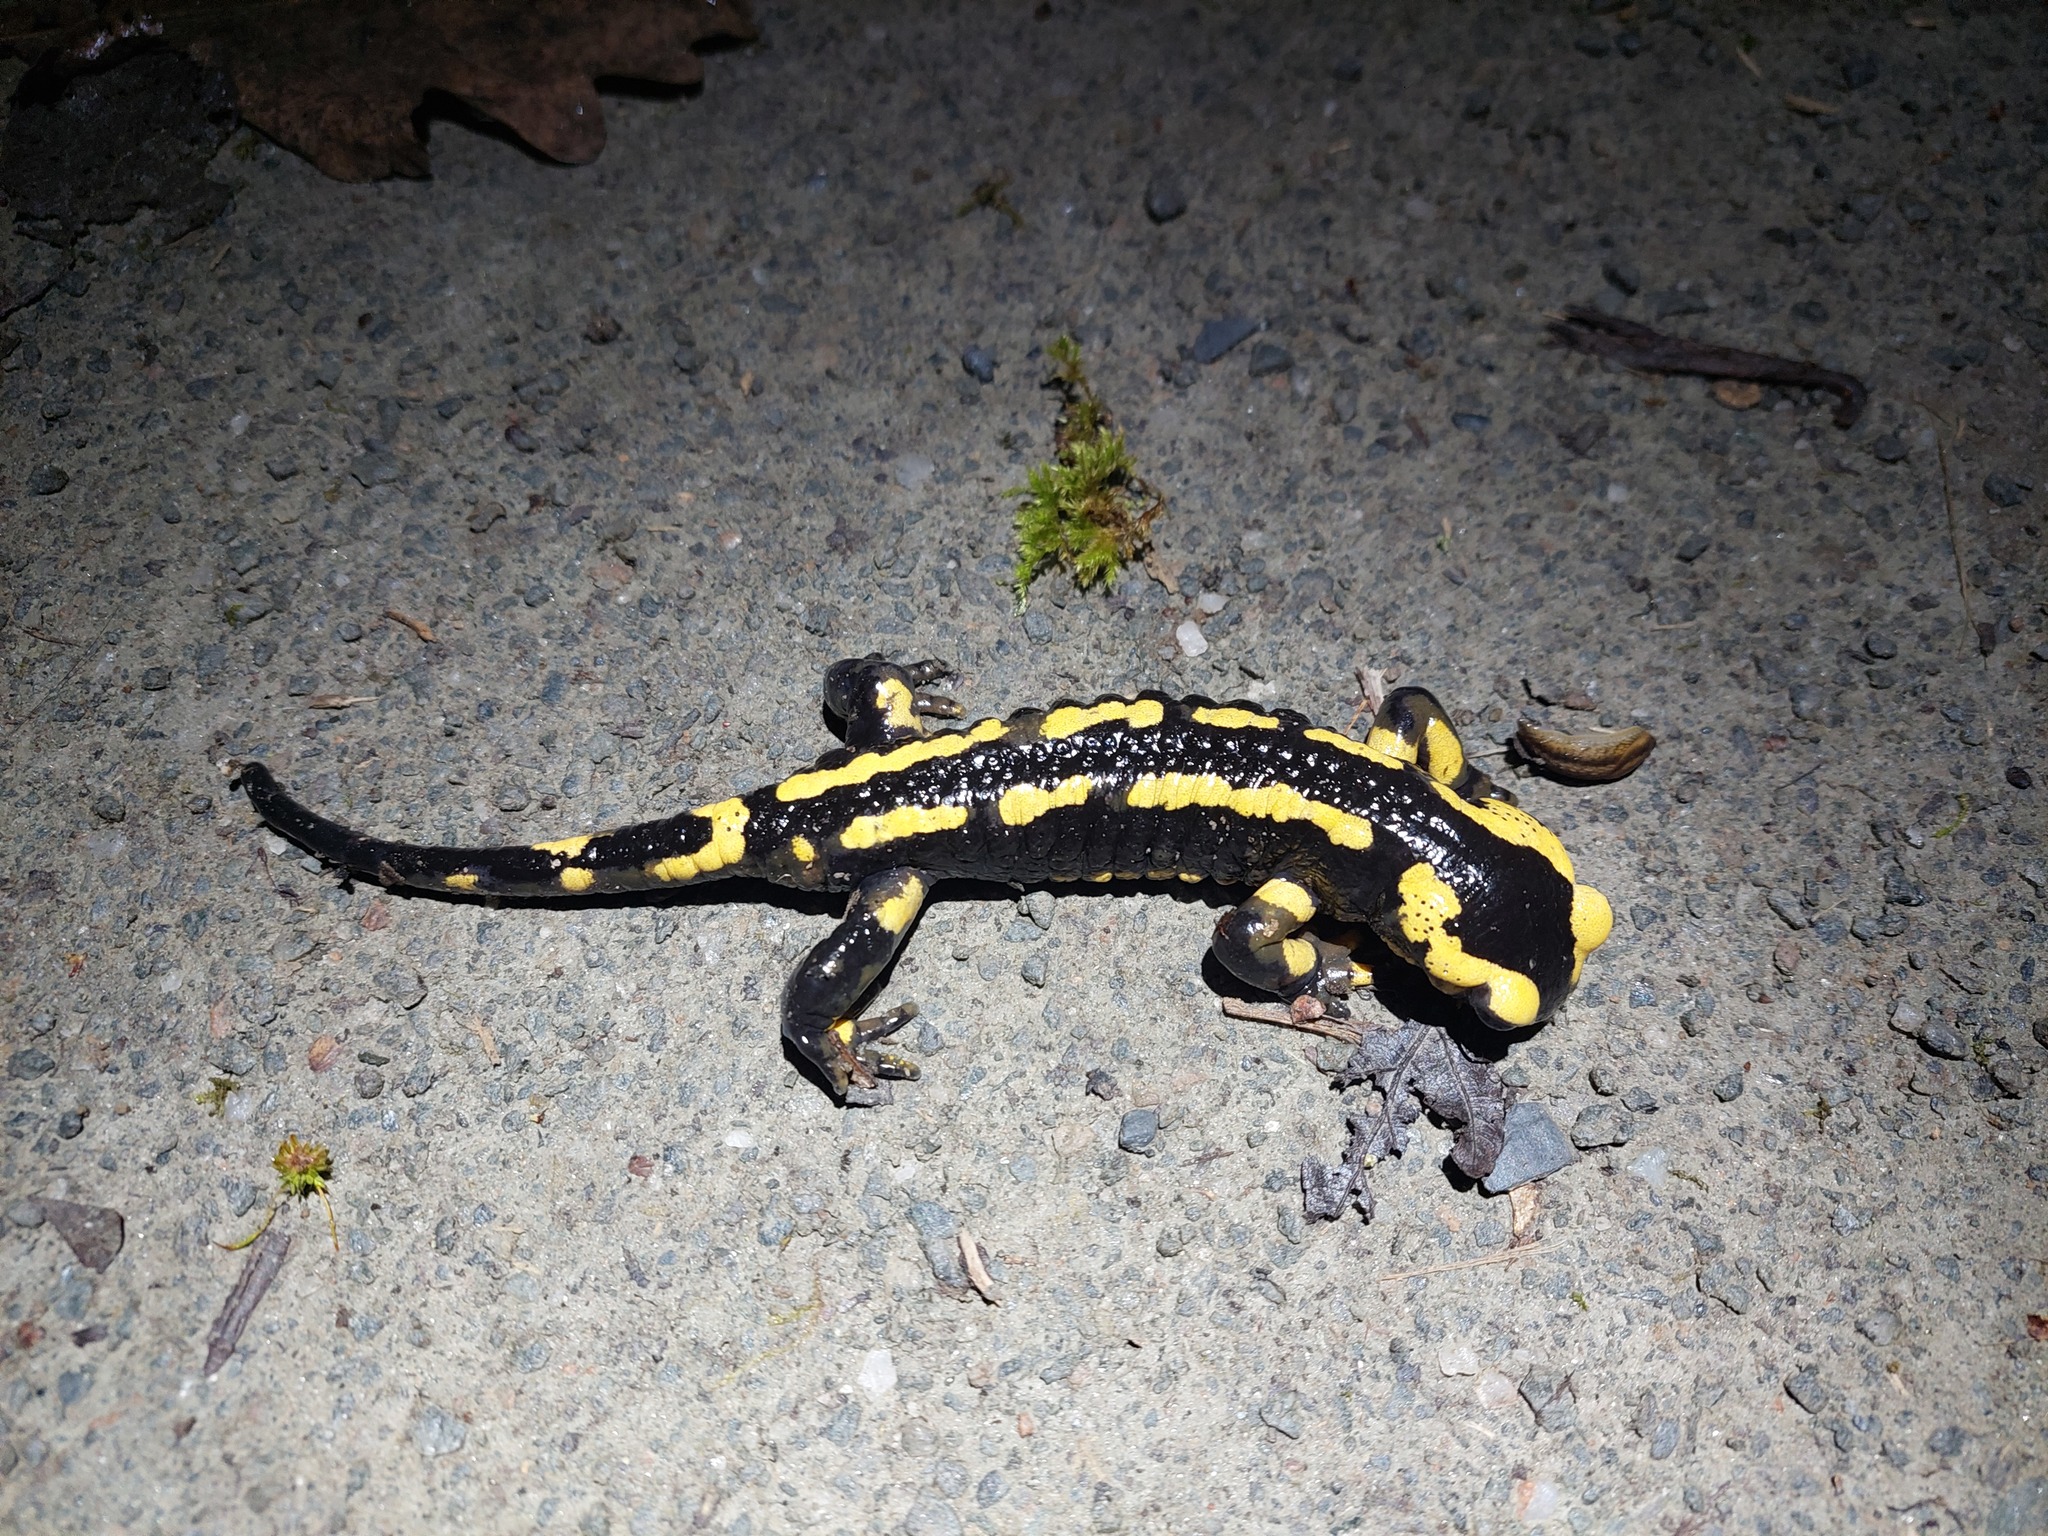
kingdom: Animalia
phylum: Chordata
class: Amphibia
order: Caudata
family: Salamandridae
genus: Salamandra
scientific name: Salamandra salamandra
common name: Fire salamander
